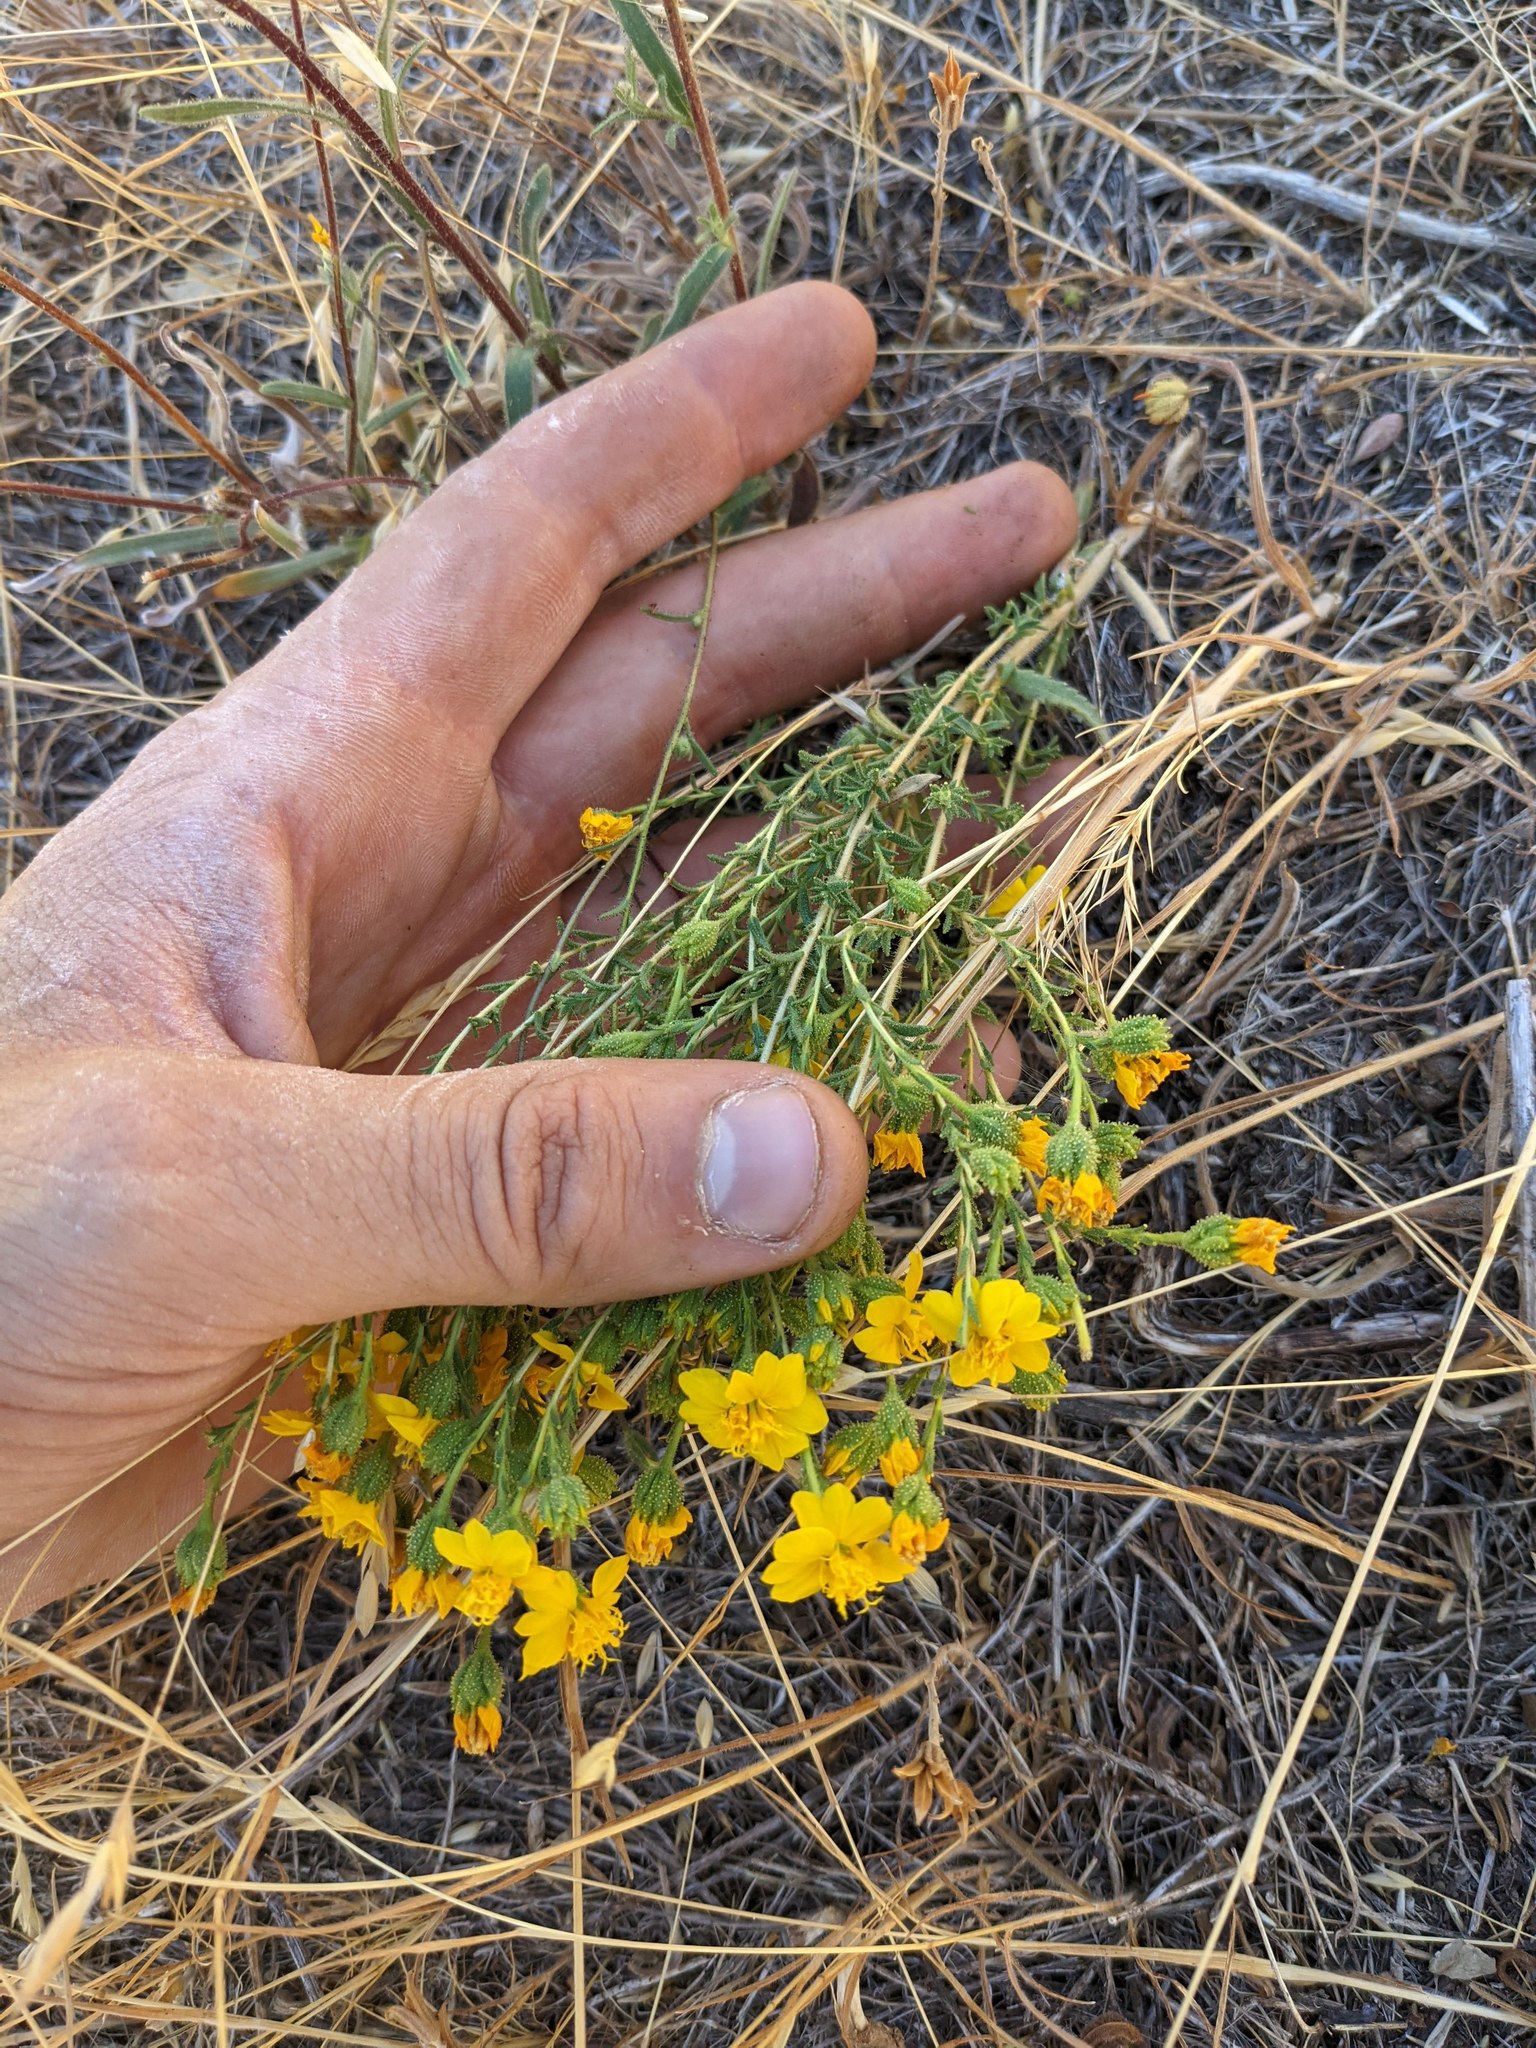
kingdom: Plantae
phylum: Tracheophyta
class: Magnoliopsida
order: Asterales
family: Asteraceae
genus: Holocarpha
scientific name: Holocarpha heermannii
